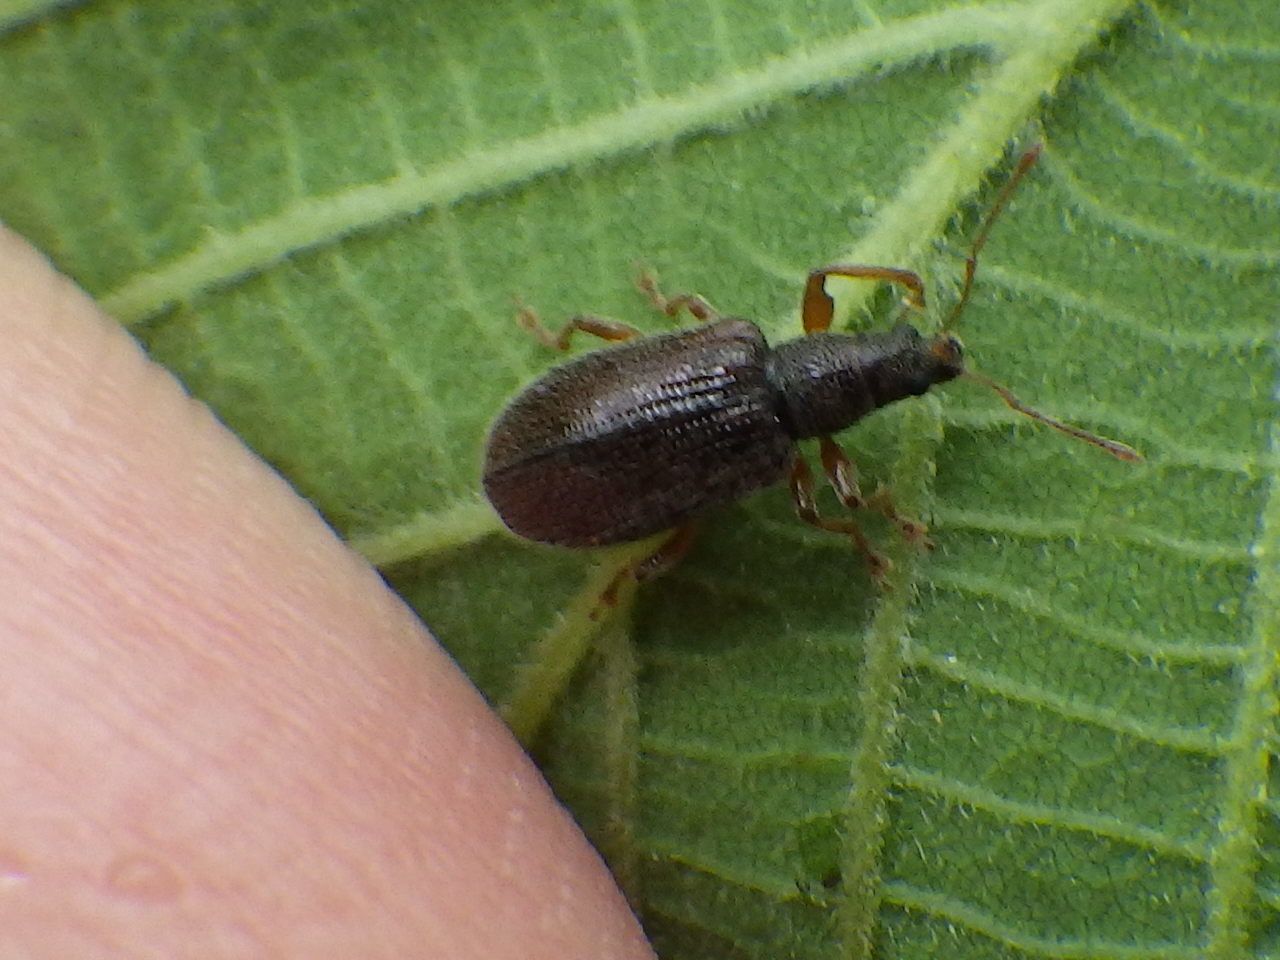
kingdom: Animalia
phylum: Arthropoda
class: Insecta
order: Coleoptera
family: Curculionidae
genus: Phyllobius
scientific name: Phyllobius oblongus
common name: Brown leaf weevil
